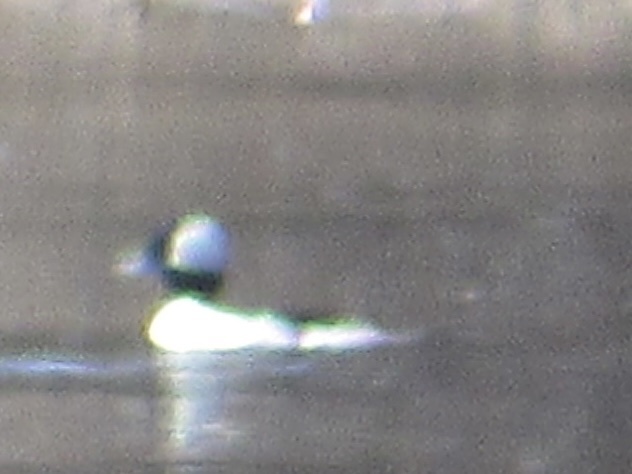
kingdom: Animalia
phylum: Chordata
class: Aves
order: Anseriformes
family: Anatidae
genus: Bucephala
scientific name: Bucephala albeola
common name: Bufflehead
